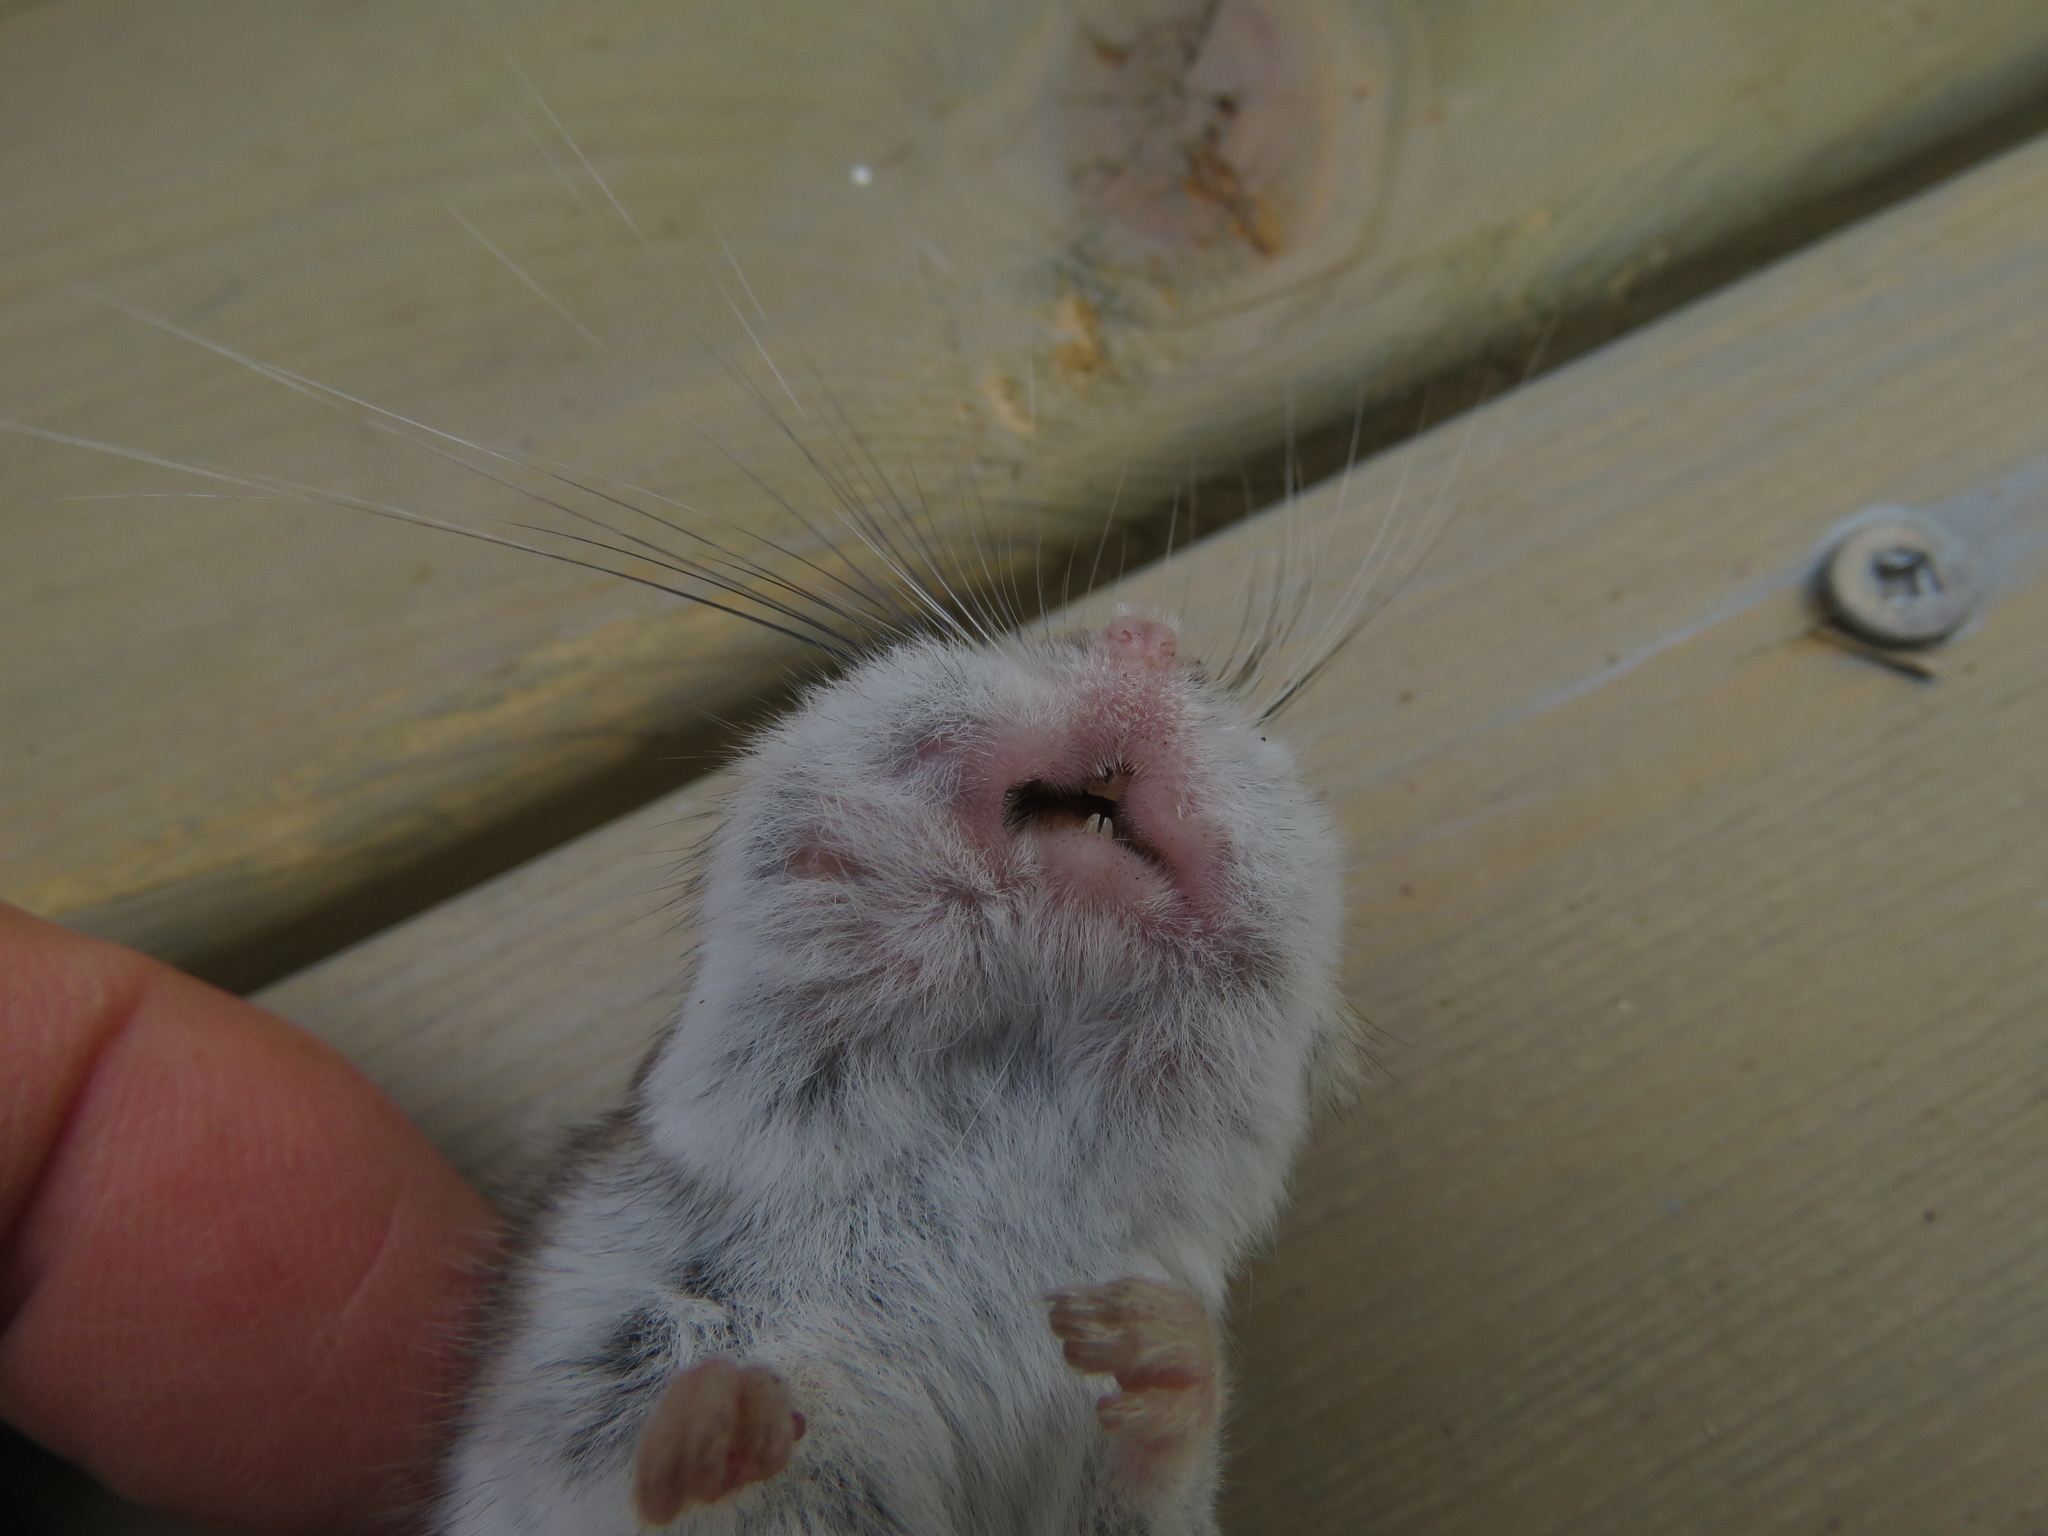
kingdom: Animalia
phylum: Chordata
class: Mammalia
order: Rodentia
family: Cricetidae
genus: Peromyscus
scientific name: Peromyscus maniculatus
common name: Deer mouse
